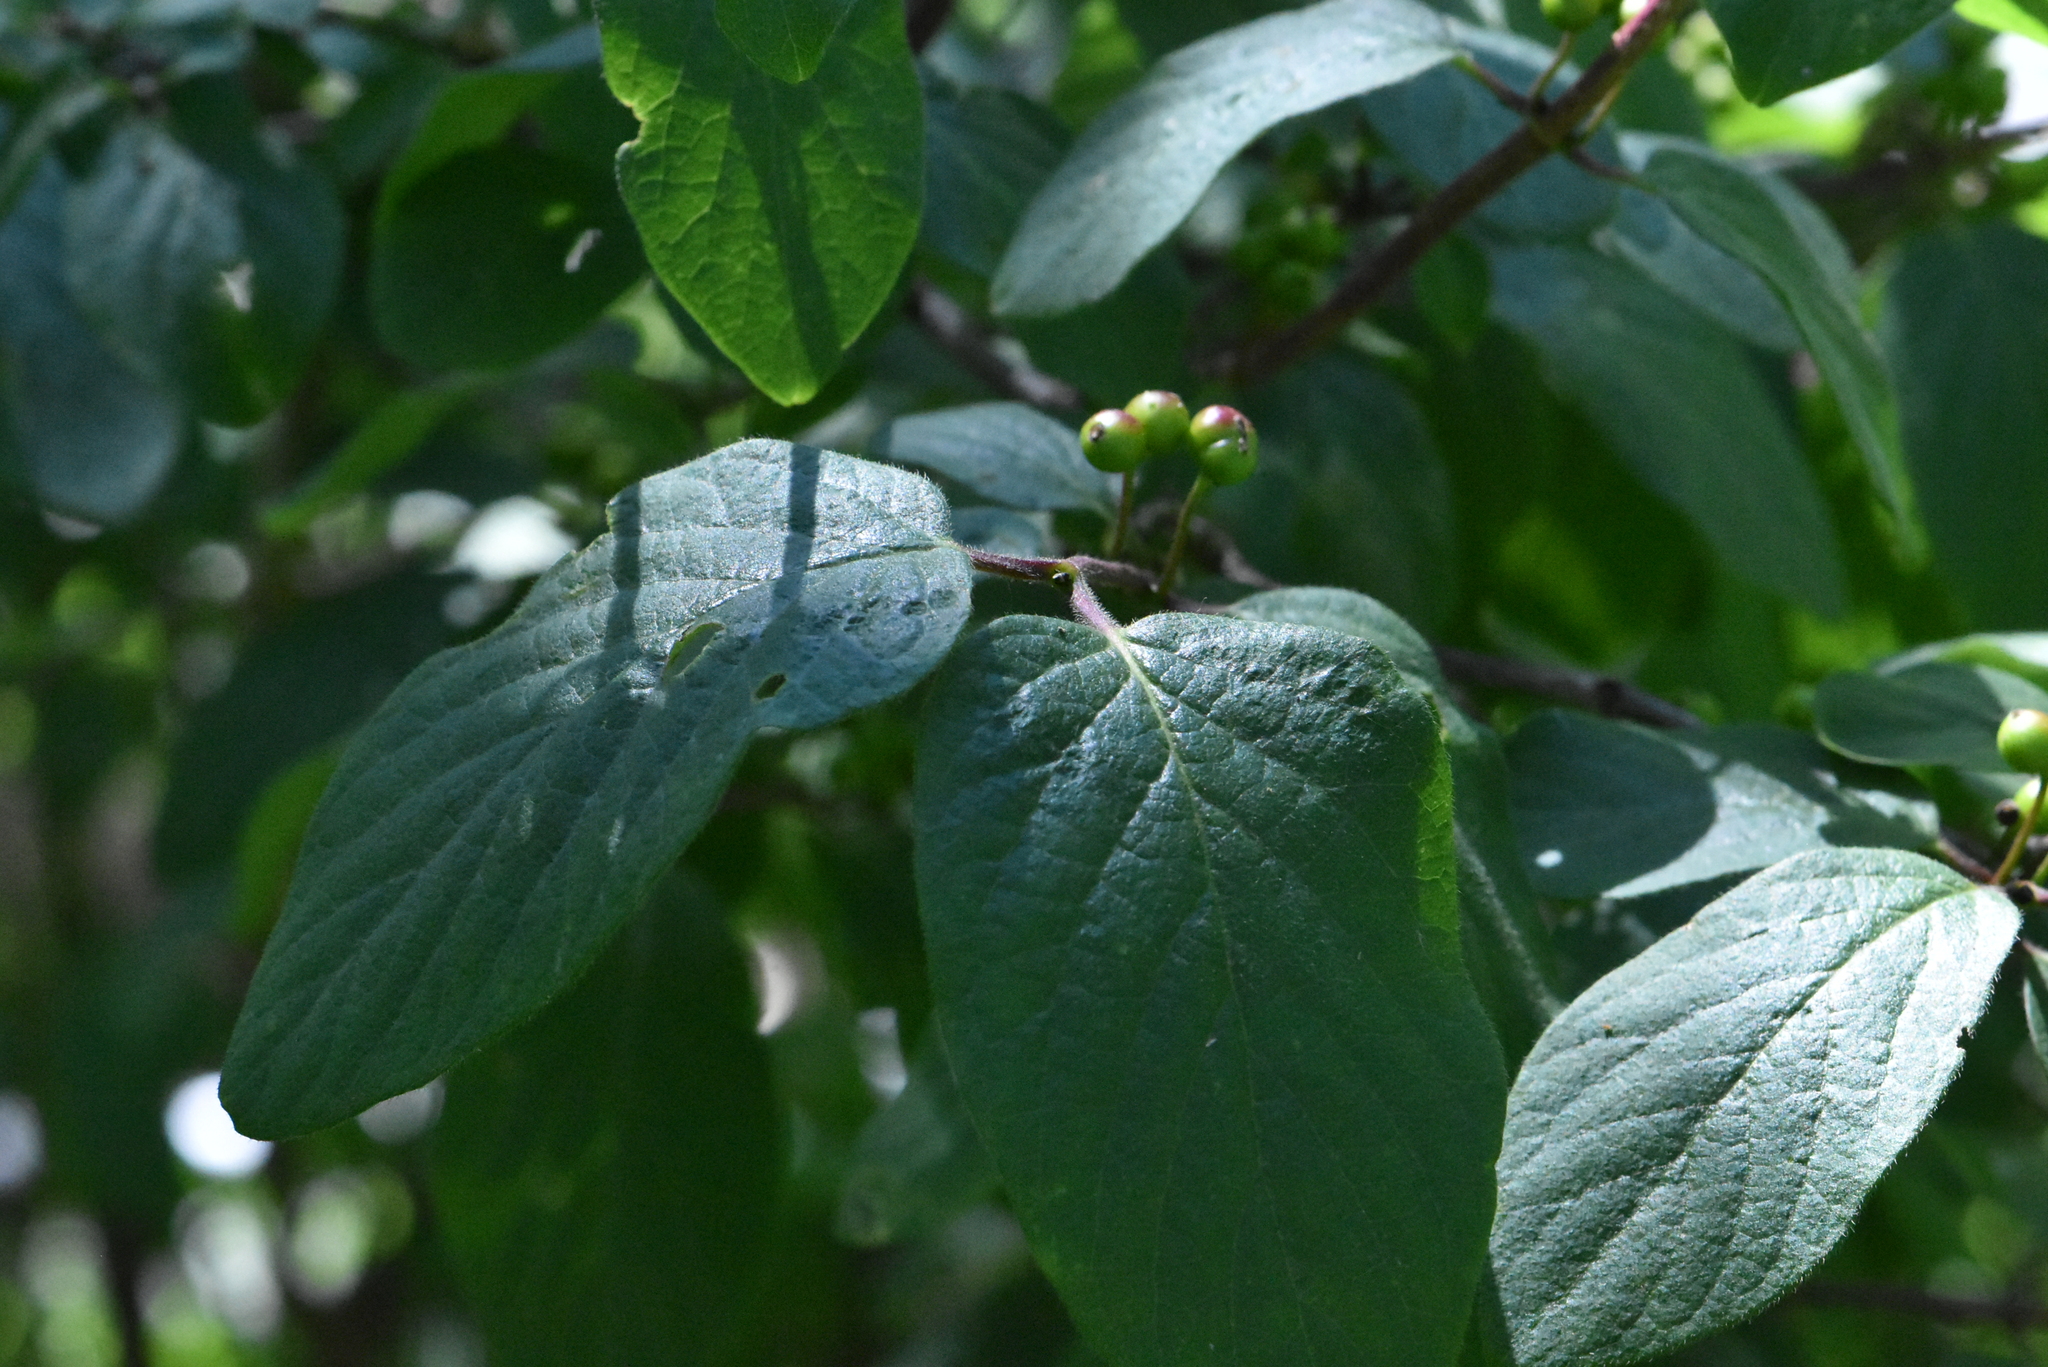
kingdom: Plantae
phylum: Tracheophyta
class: Magnoliopsida
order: Dipsacales
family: Caprifoliaceae
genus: Lonicera
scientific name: Lonicera xylosteum
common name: Fly honeysuckle
